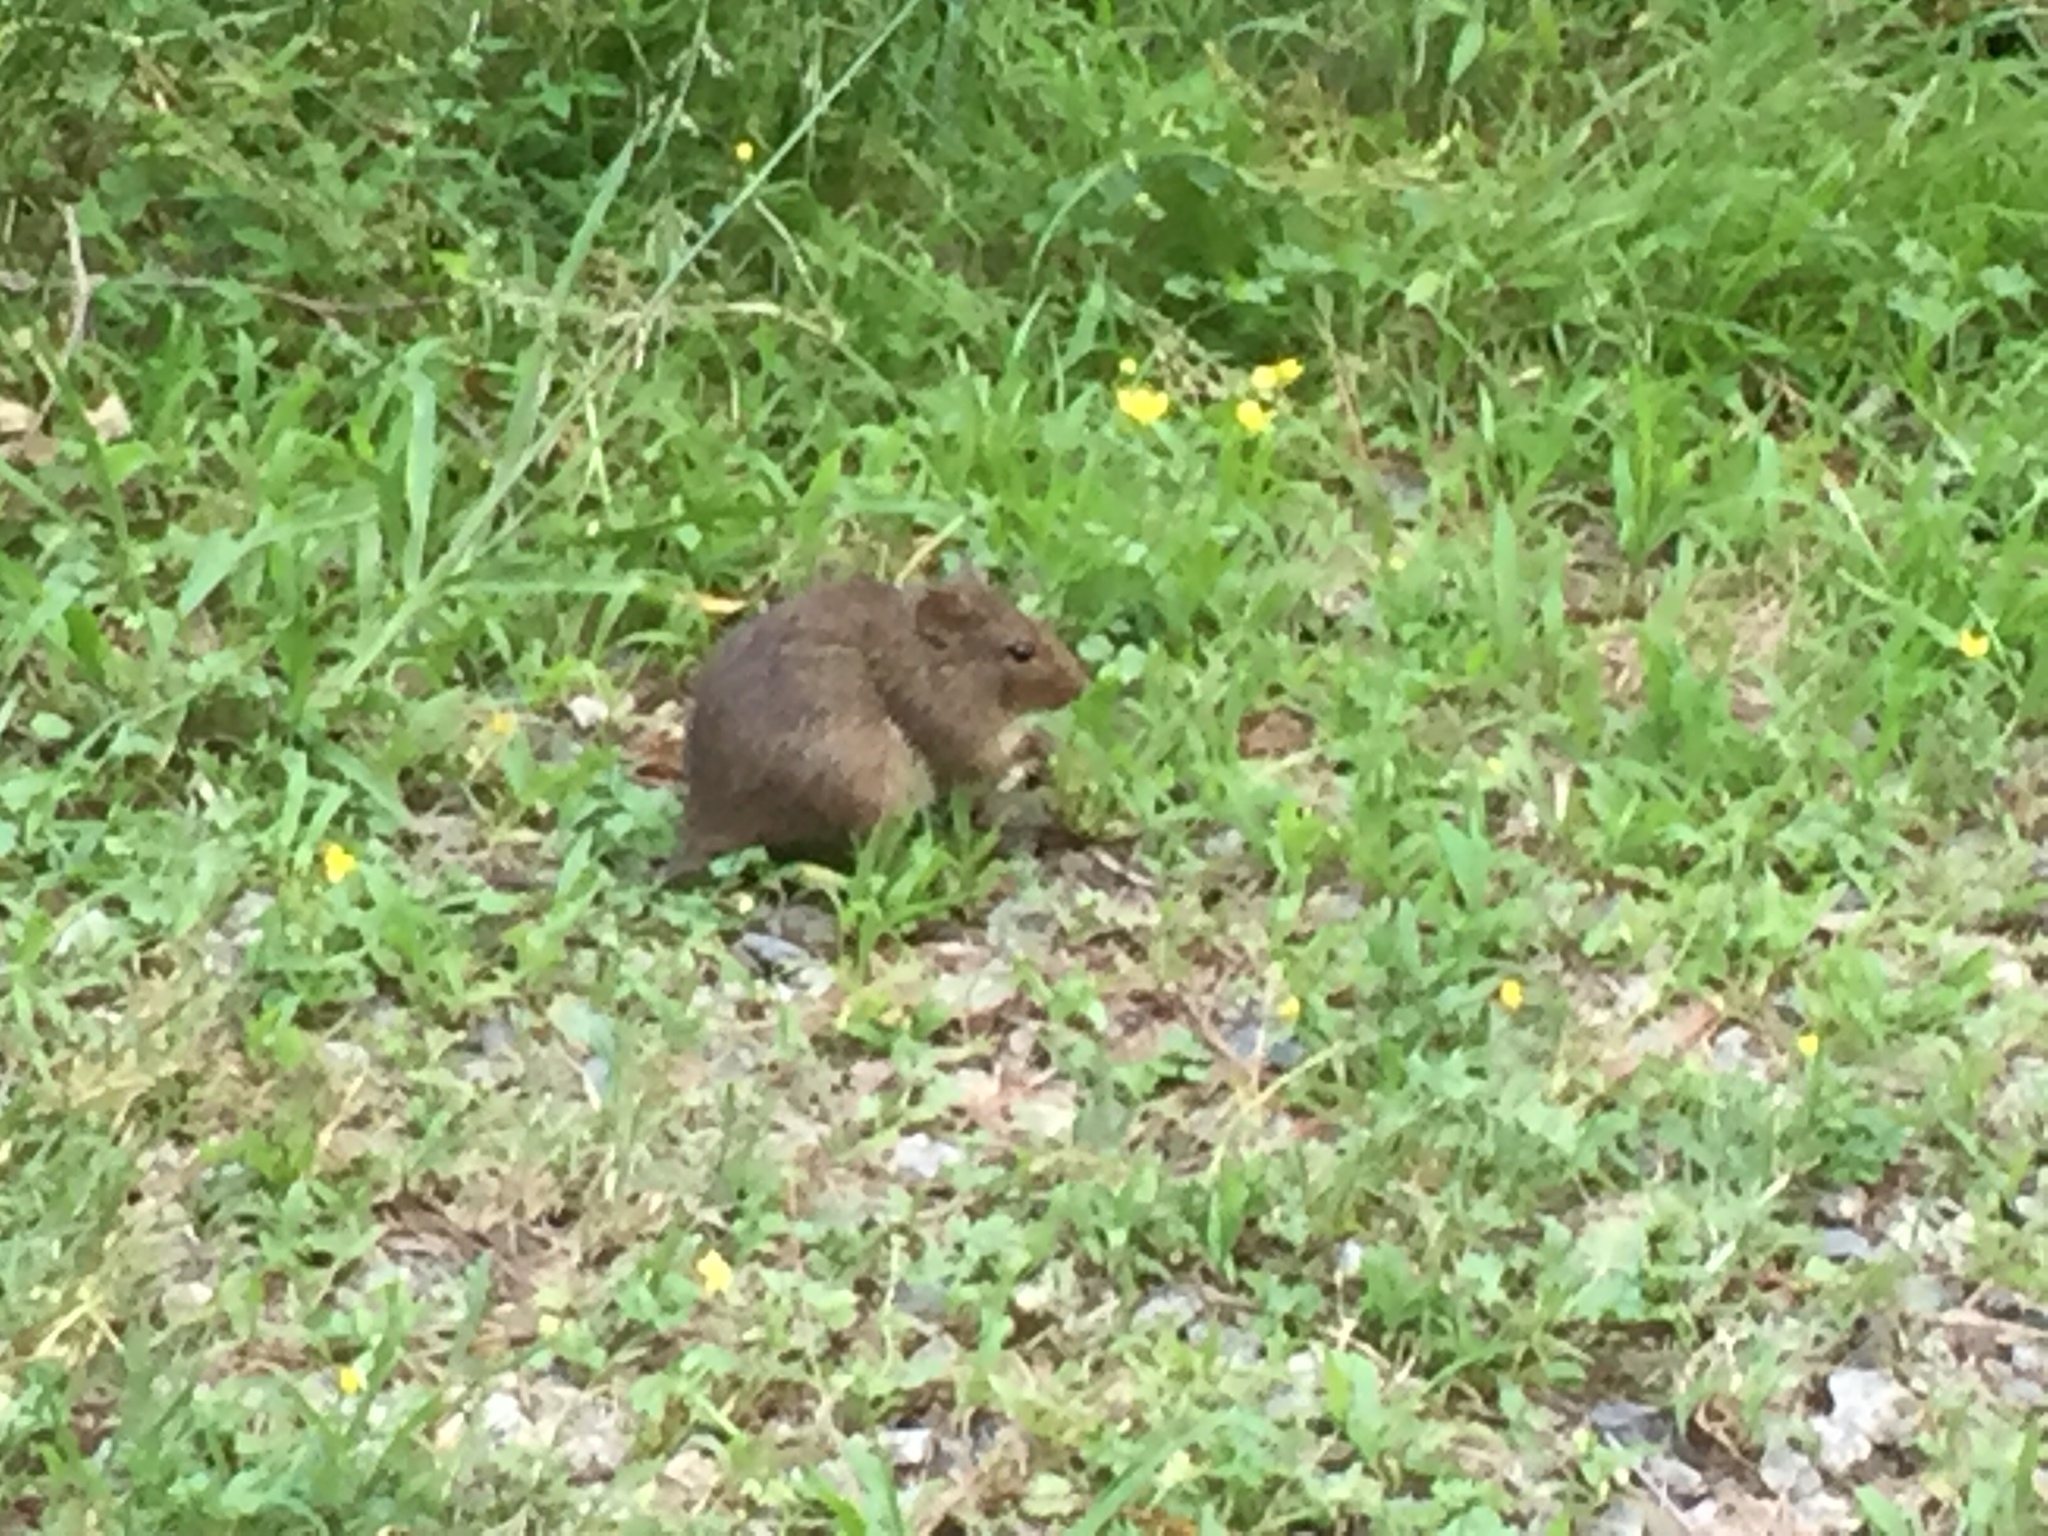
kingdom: Animalia
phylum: Chordata
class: Mammalia
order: Rodentia
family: Cricetidae
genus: Sigmodon
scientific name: Sigmodon hispidus
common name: Hispid cotton rat
